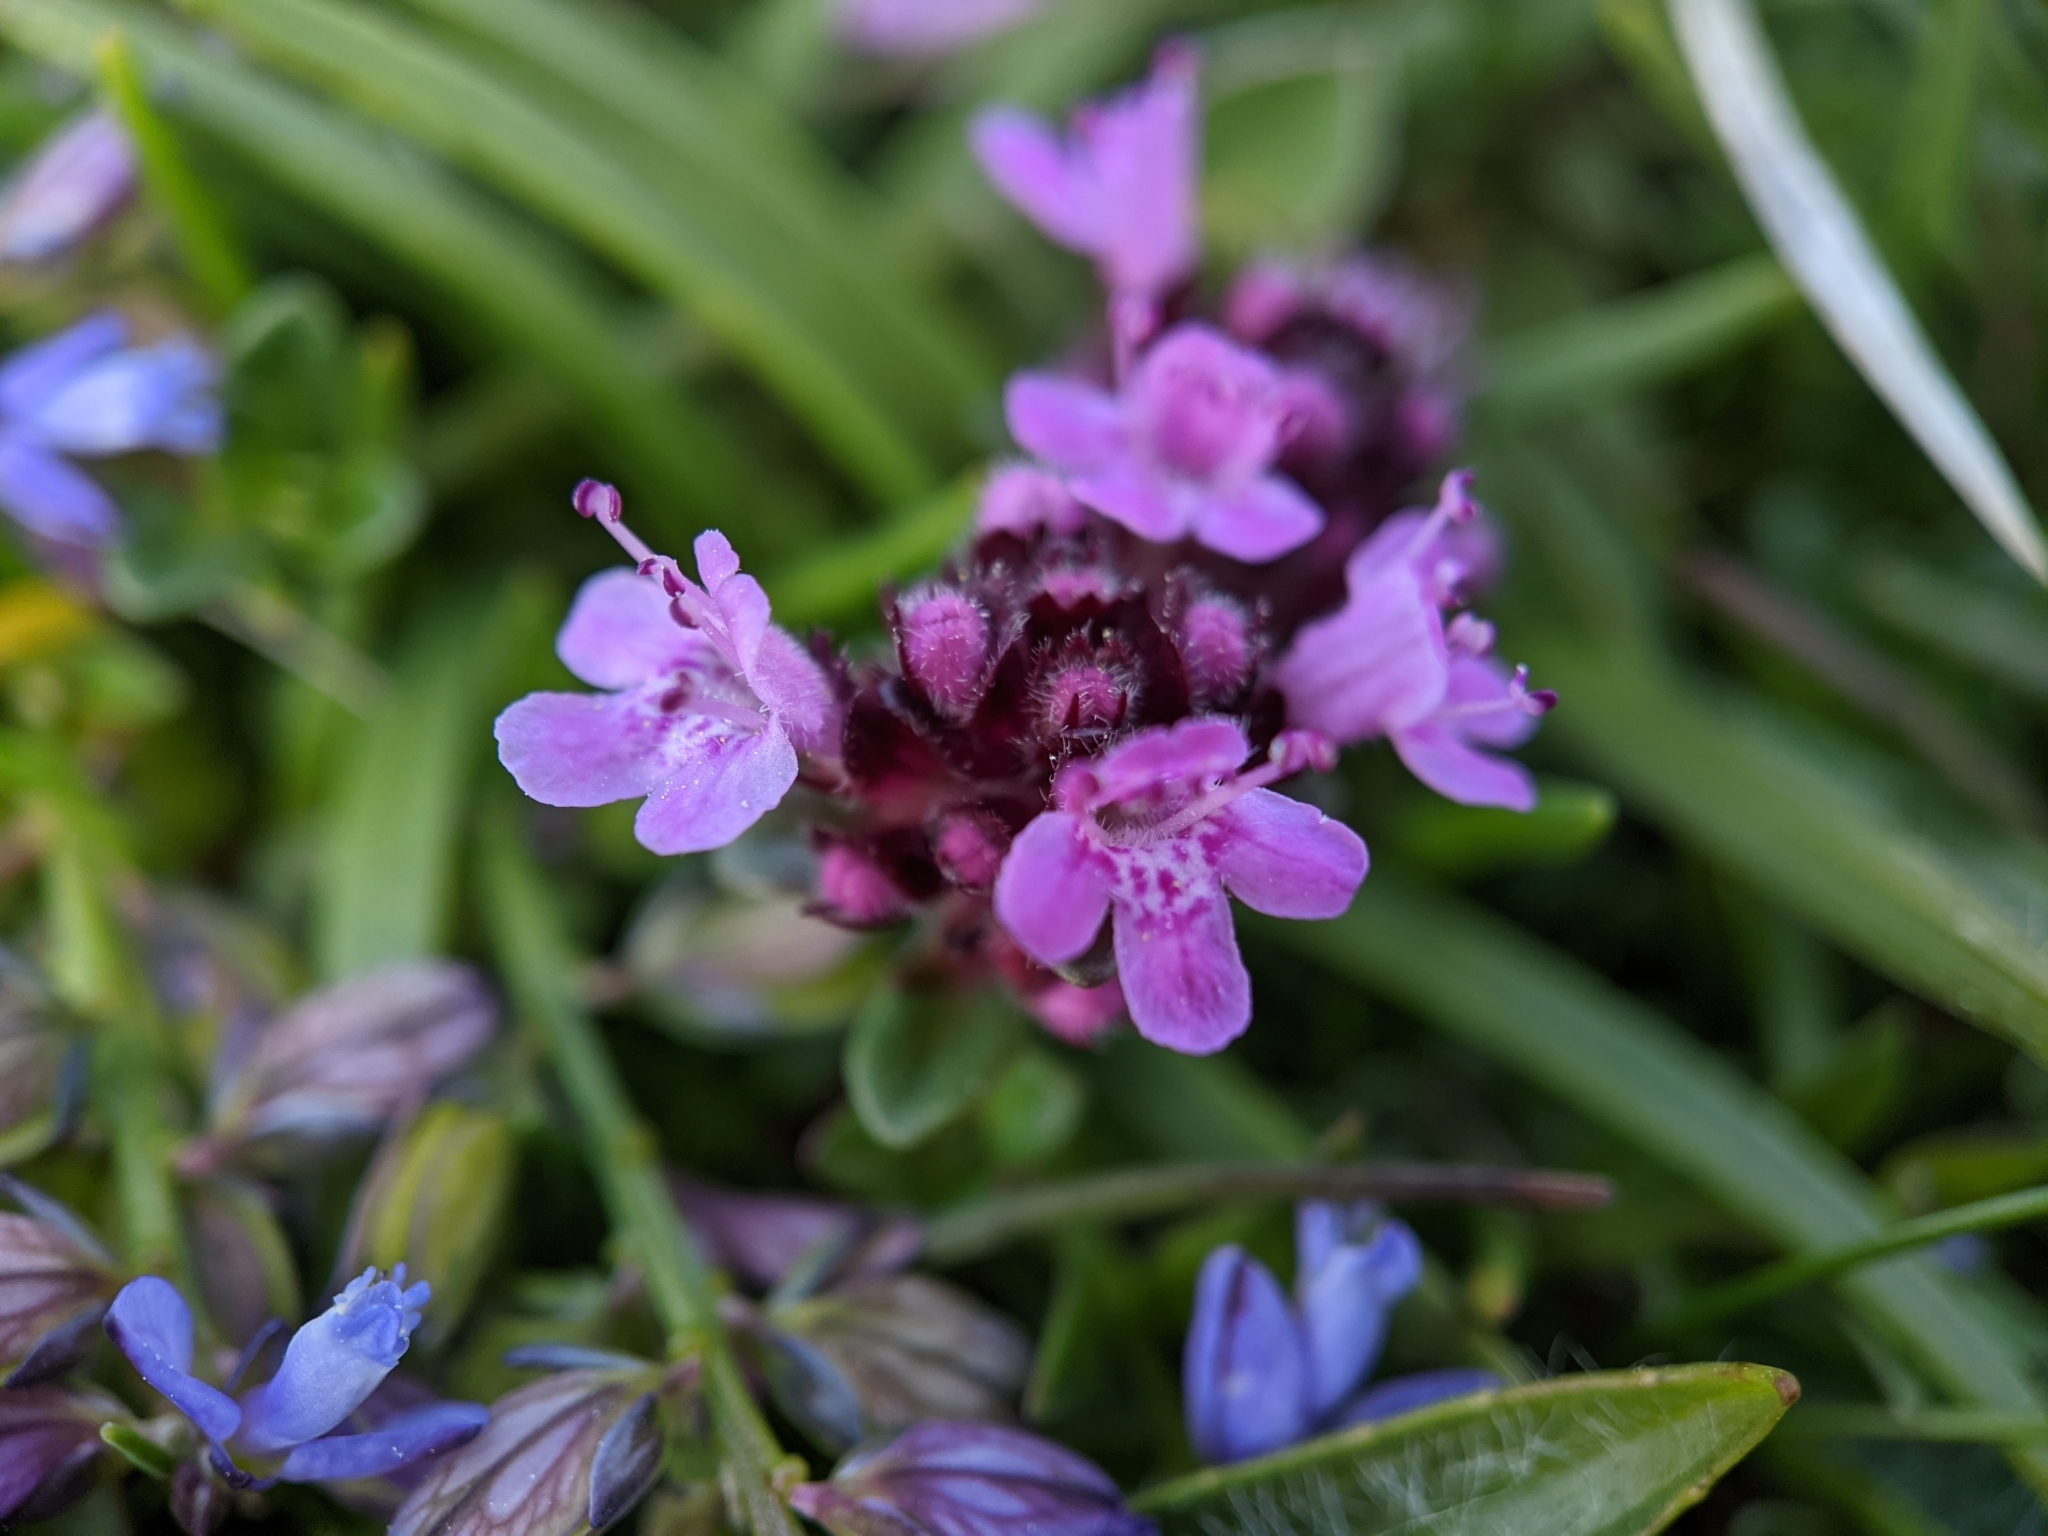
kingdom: Plantae
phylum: Tracheophyta
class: Magnoliopsida
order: Lamiales
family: Lamiaceae
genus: Thymus
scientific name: Thymus praecox
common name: Wild thyme
